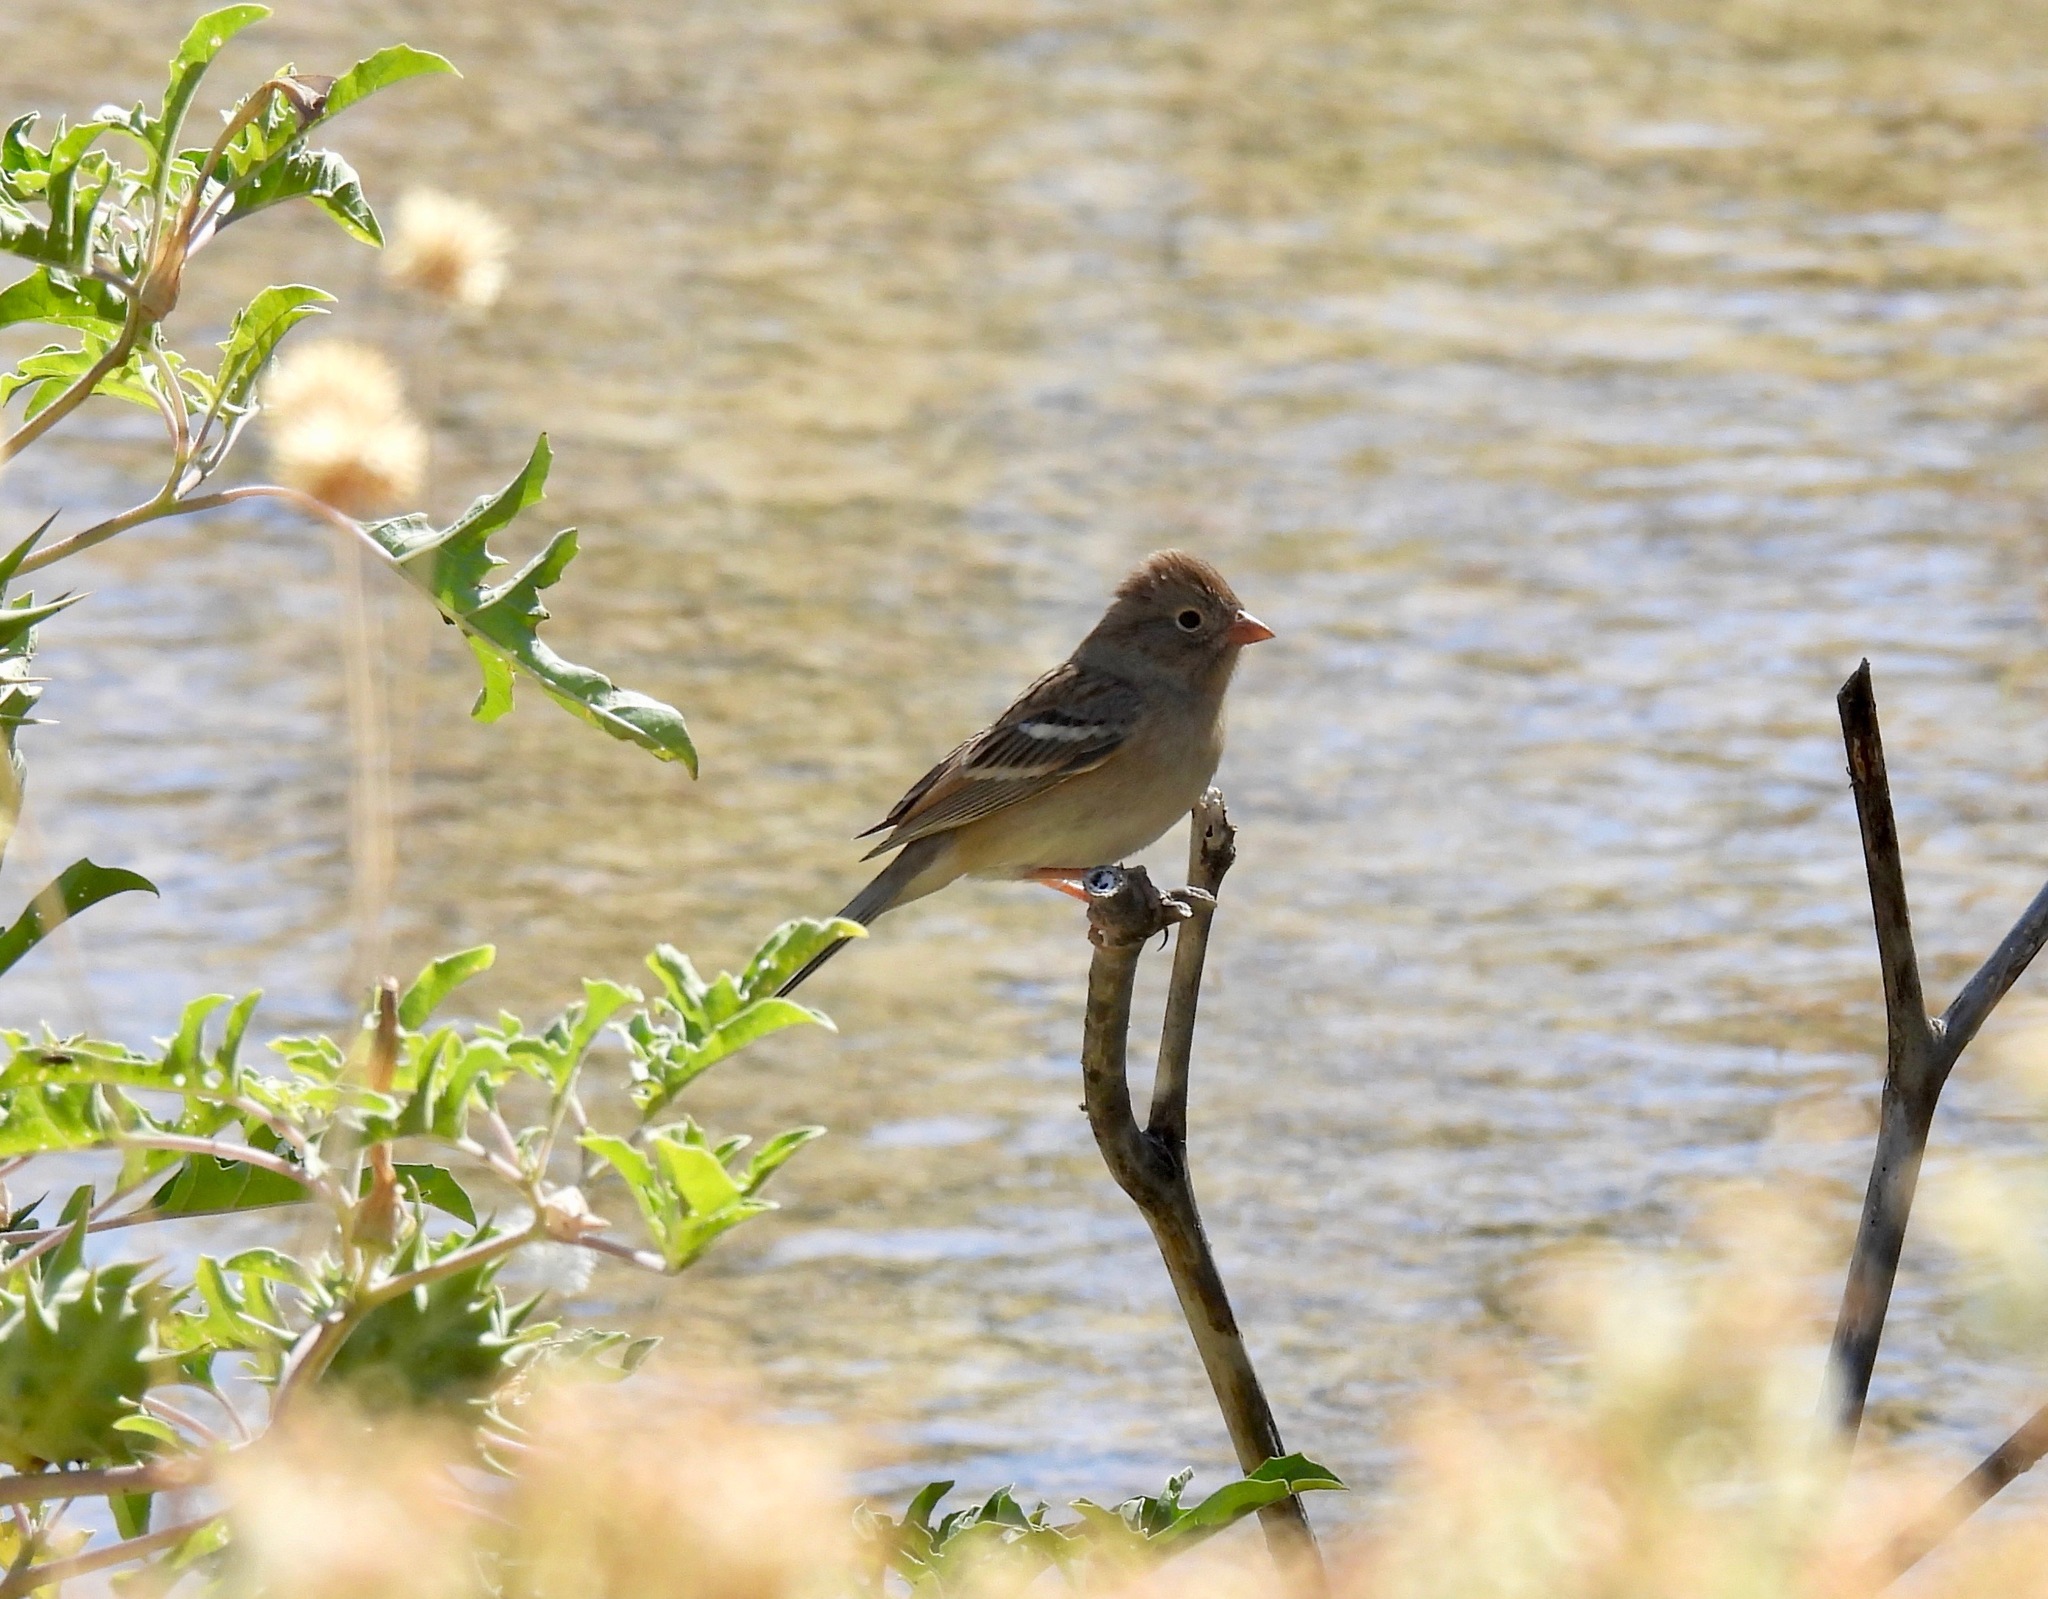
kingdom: Animalia
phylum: Chordata
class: Aves
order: Passeriformes
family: Passerellidae
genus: Spizella
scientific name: Spizella pusilla
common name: Field sparrow
